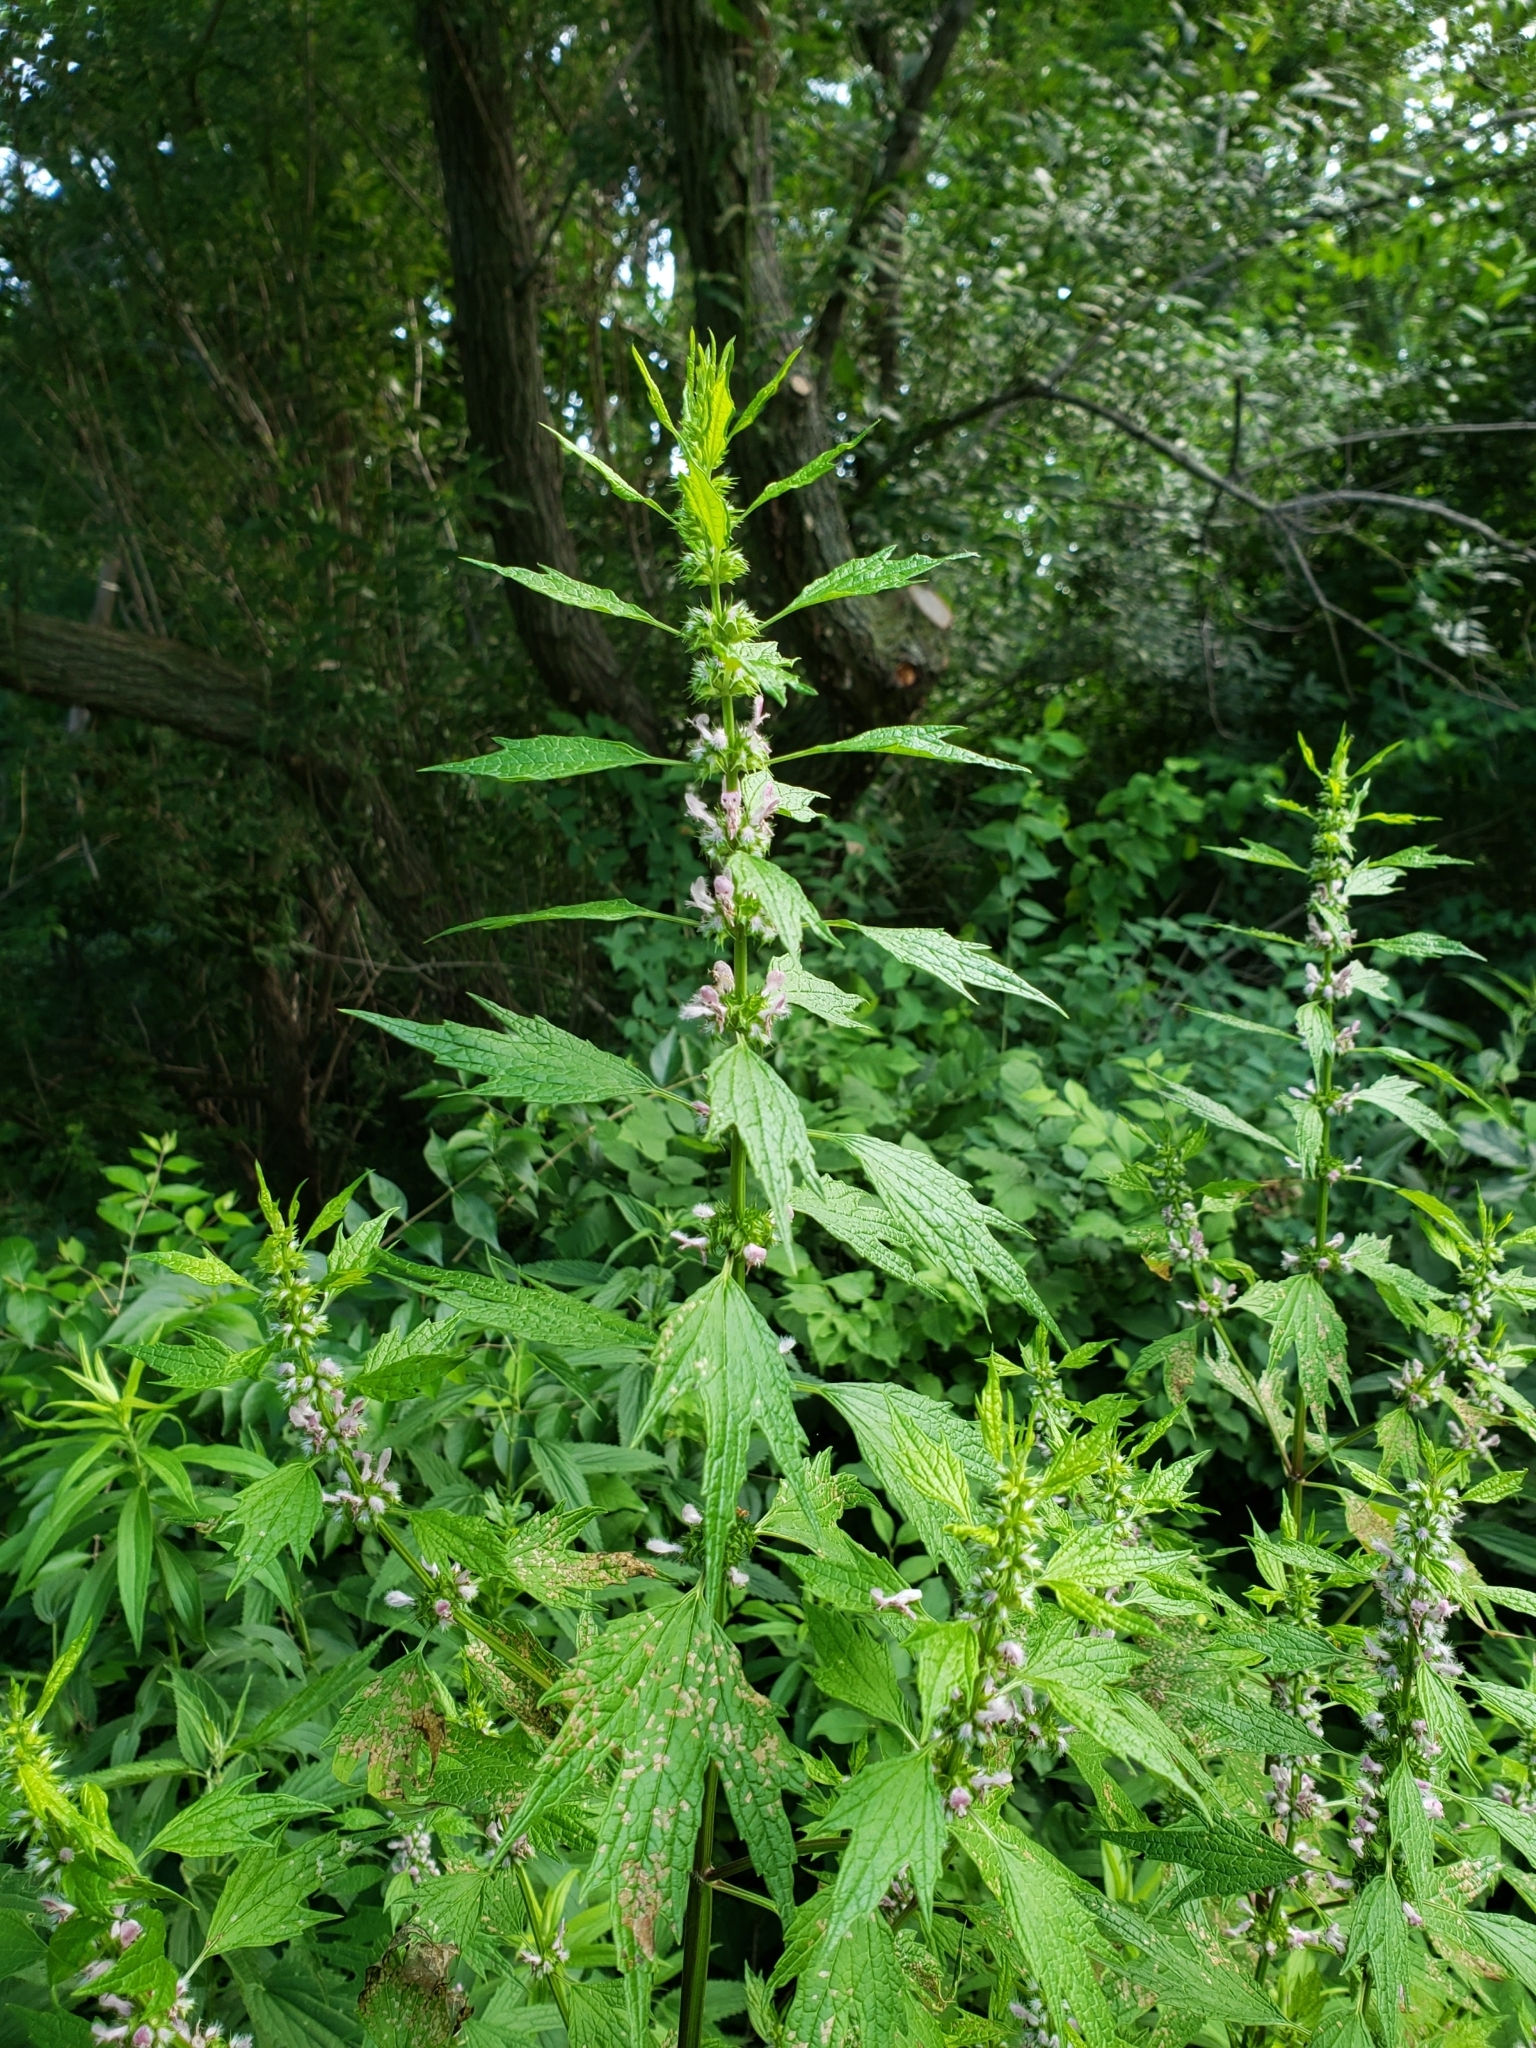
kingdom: Plantae
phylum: Tracheophyta
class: Magnoliopsida
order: Lamiales
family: Lamiaceae
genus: Leonurus
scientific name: Leonurus cardiaca
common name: Motherwort
